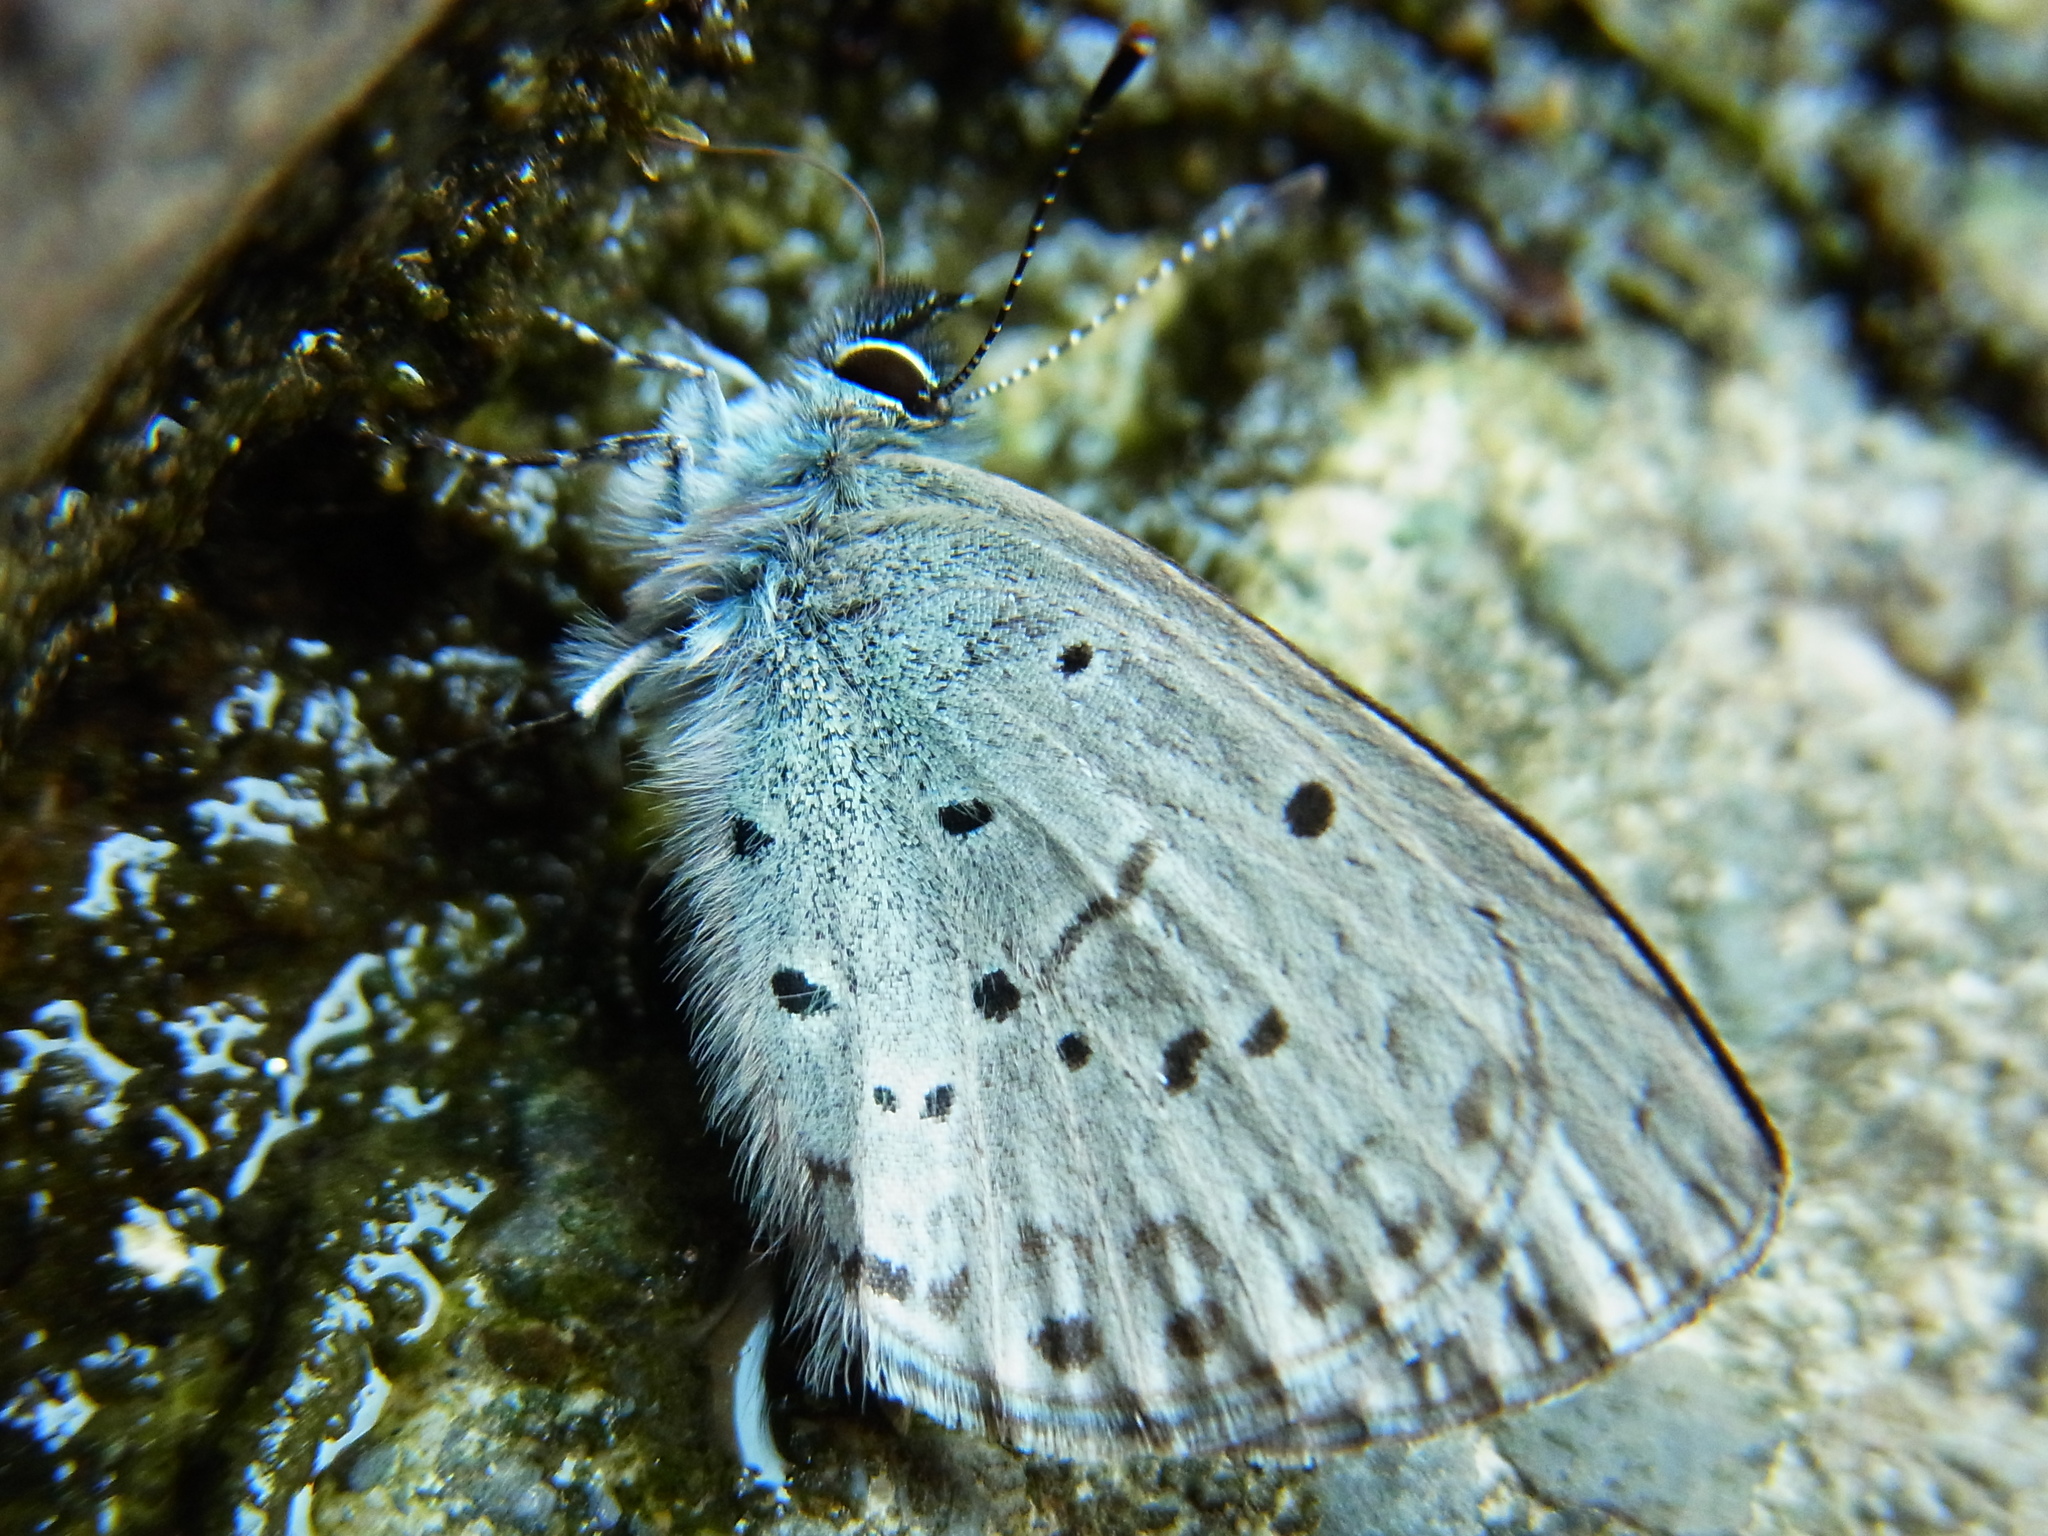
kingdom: Animalia
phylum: Arthropoda
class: Insecta
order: Lepidoptera
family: Lycaenidae
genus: Celastrina
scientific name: Celastrina sugitanii
